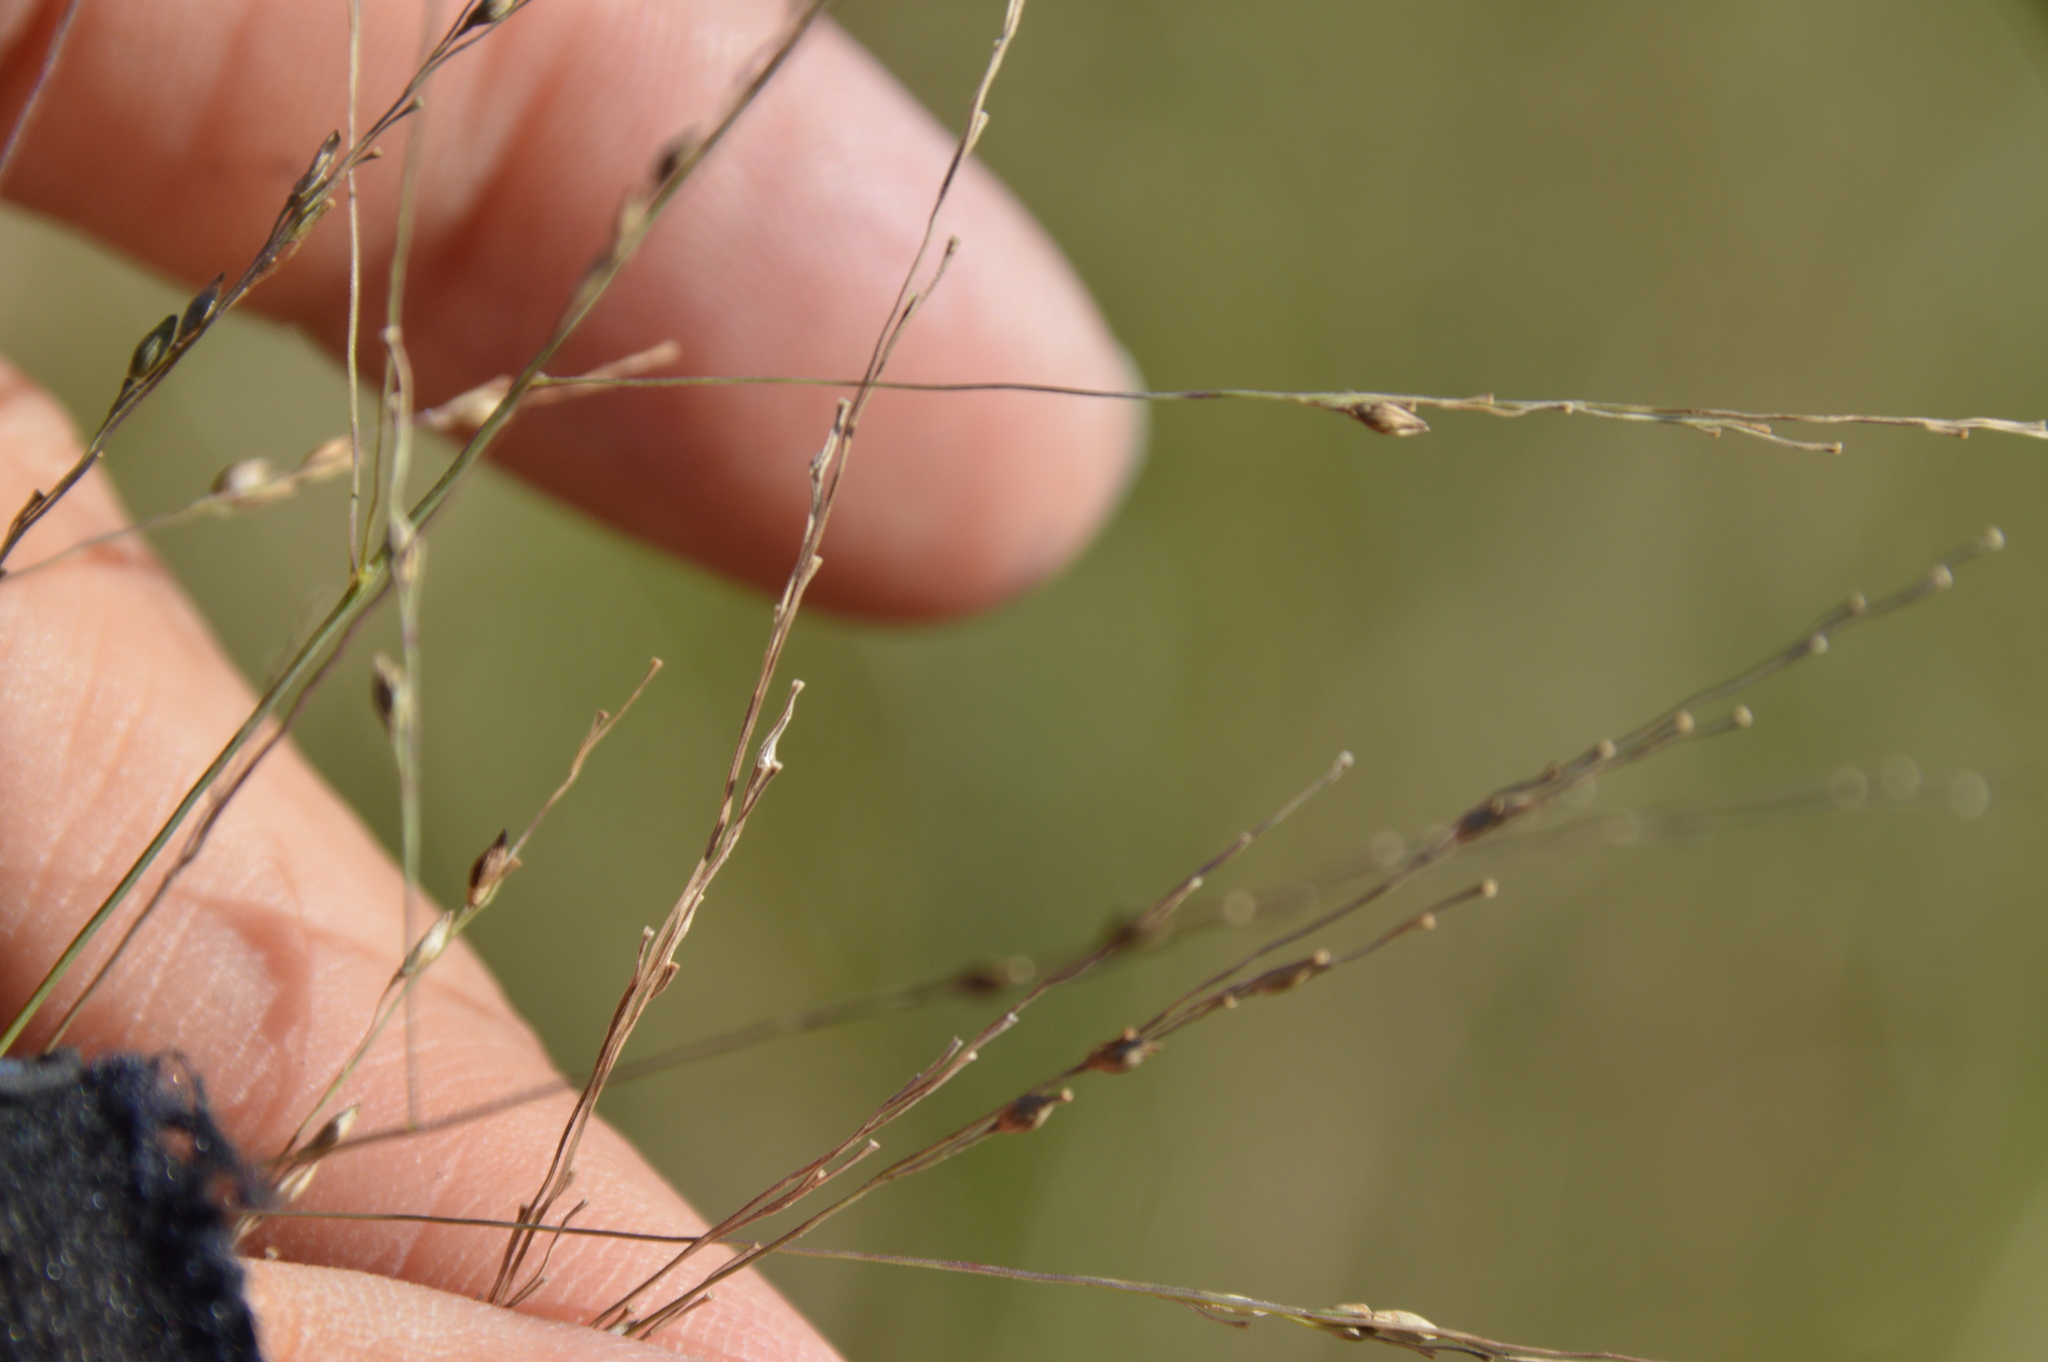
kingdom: Plantae
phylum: Tracheophyta
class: Liliopsida
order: Poales
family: Poaceae
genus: Panicum
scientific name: Panicum dichotomiflorum
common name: Autumn millet
